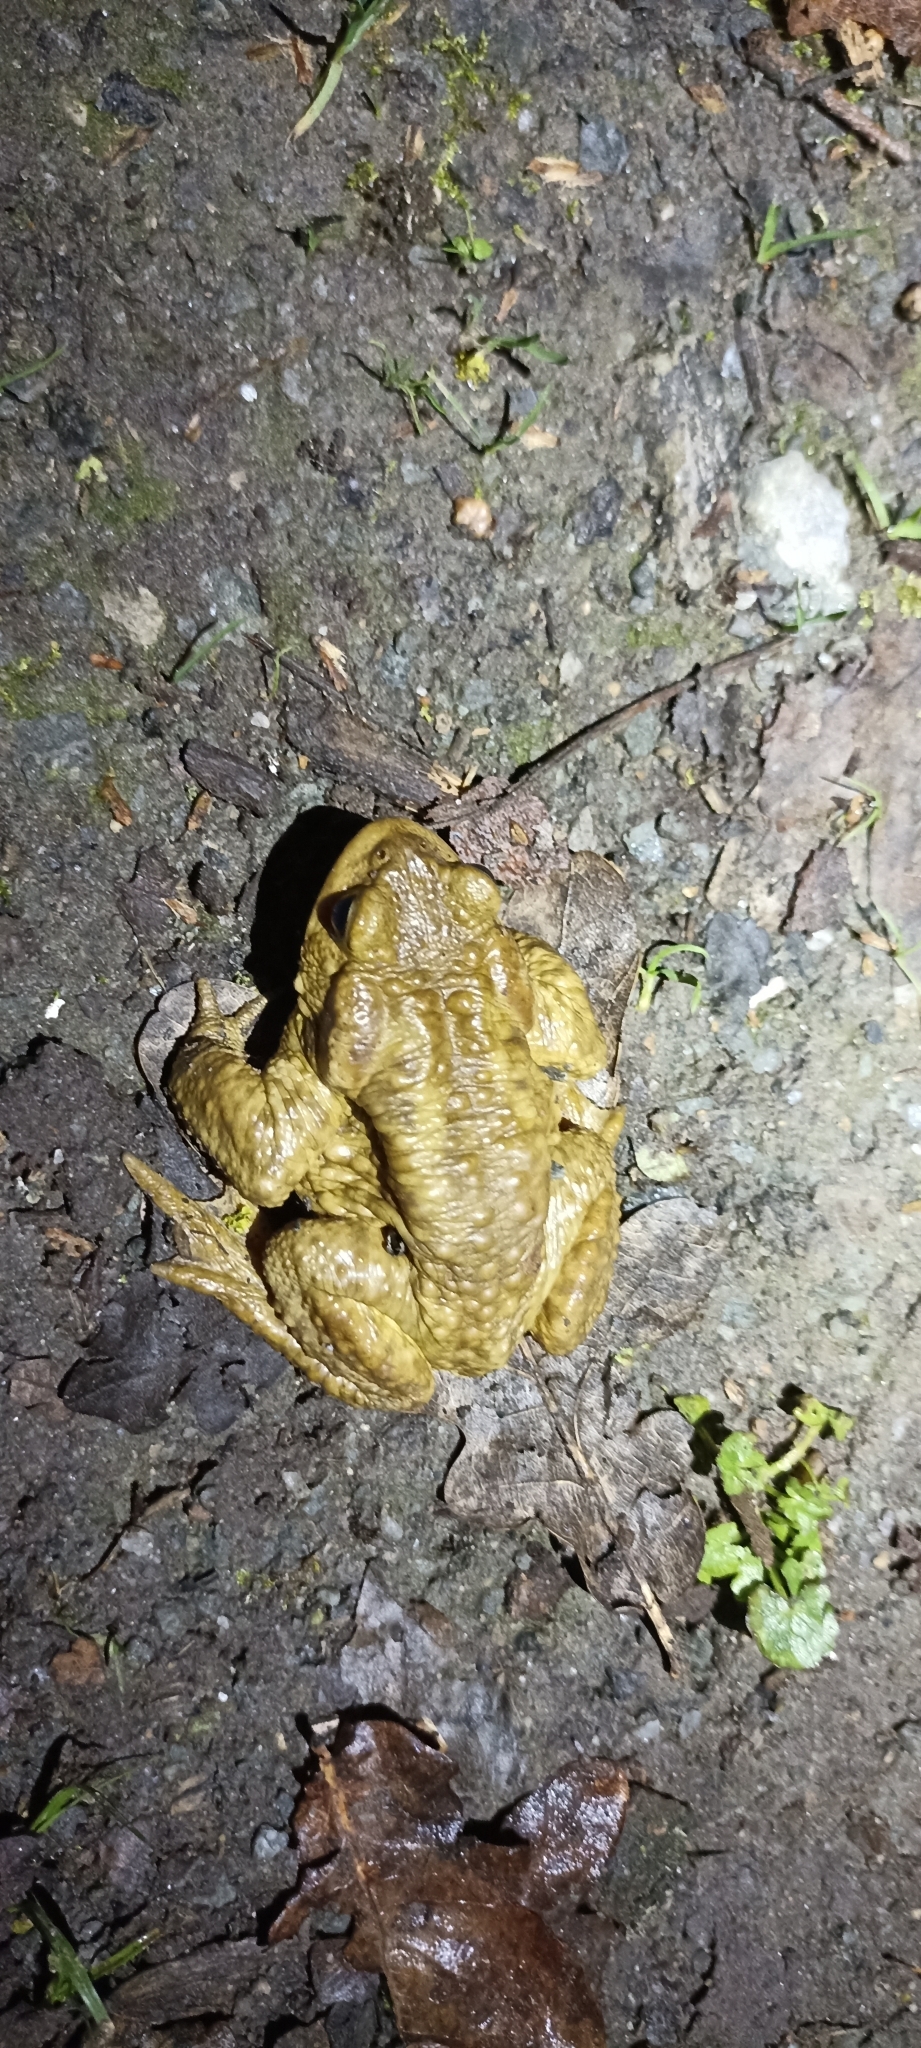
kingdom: Animalia
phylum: Chordata
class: Amphibia
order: Anura
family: Bufonidae
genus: Bufo
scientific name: Bufo spinosus
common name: Western common toad
